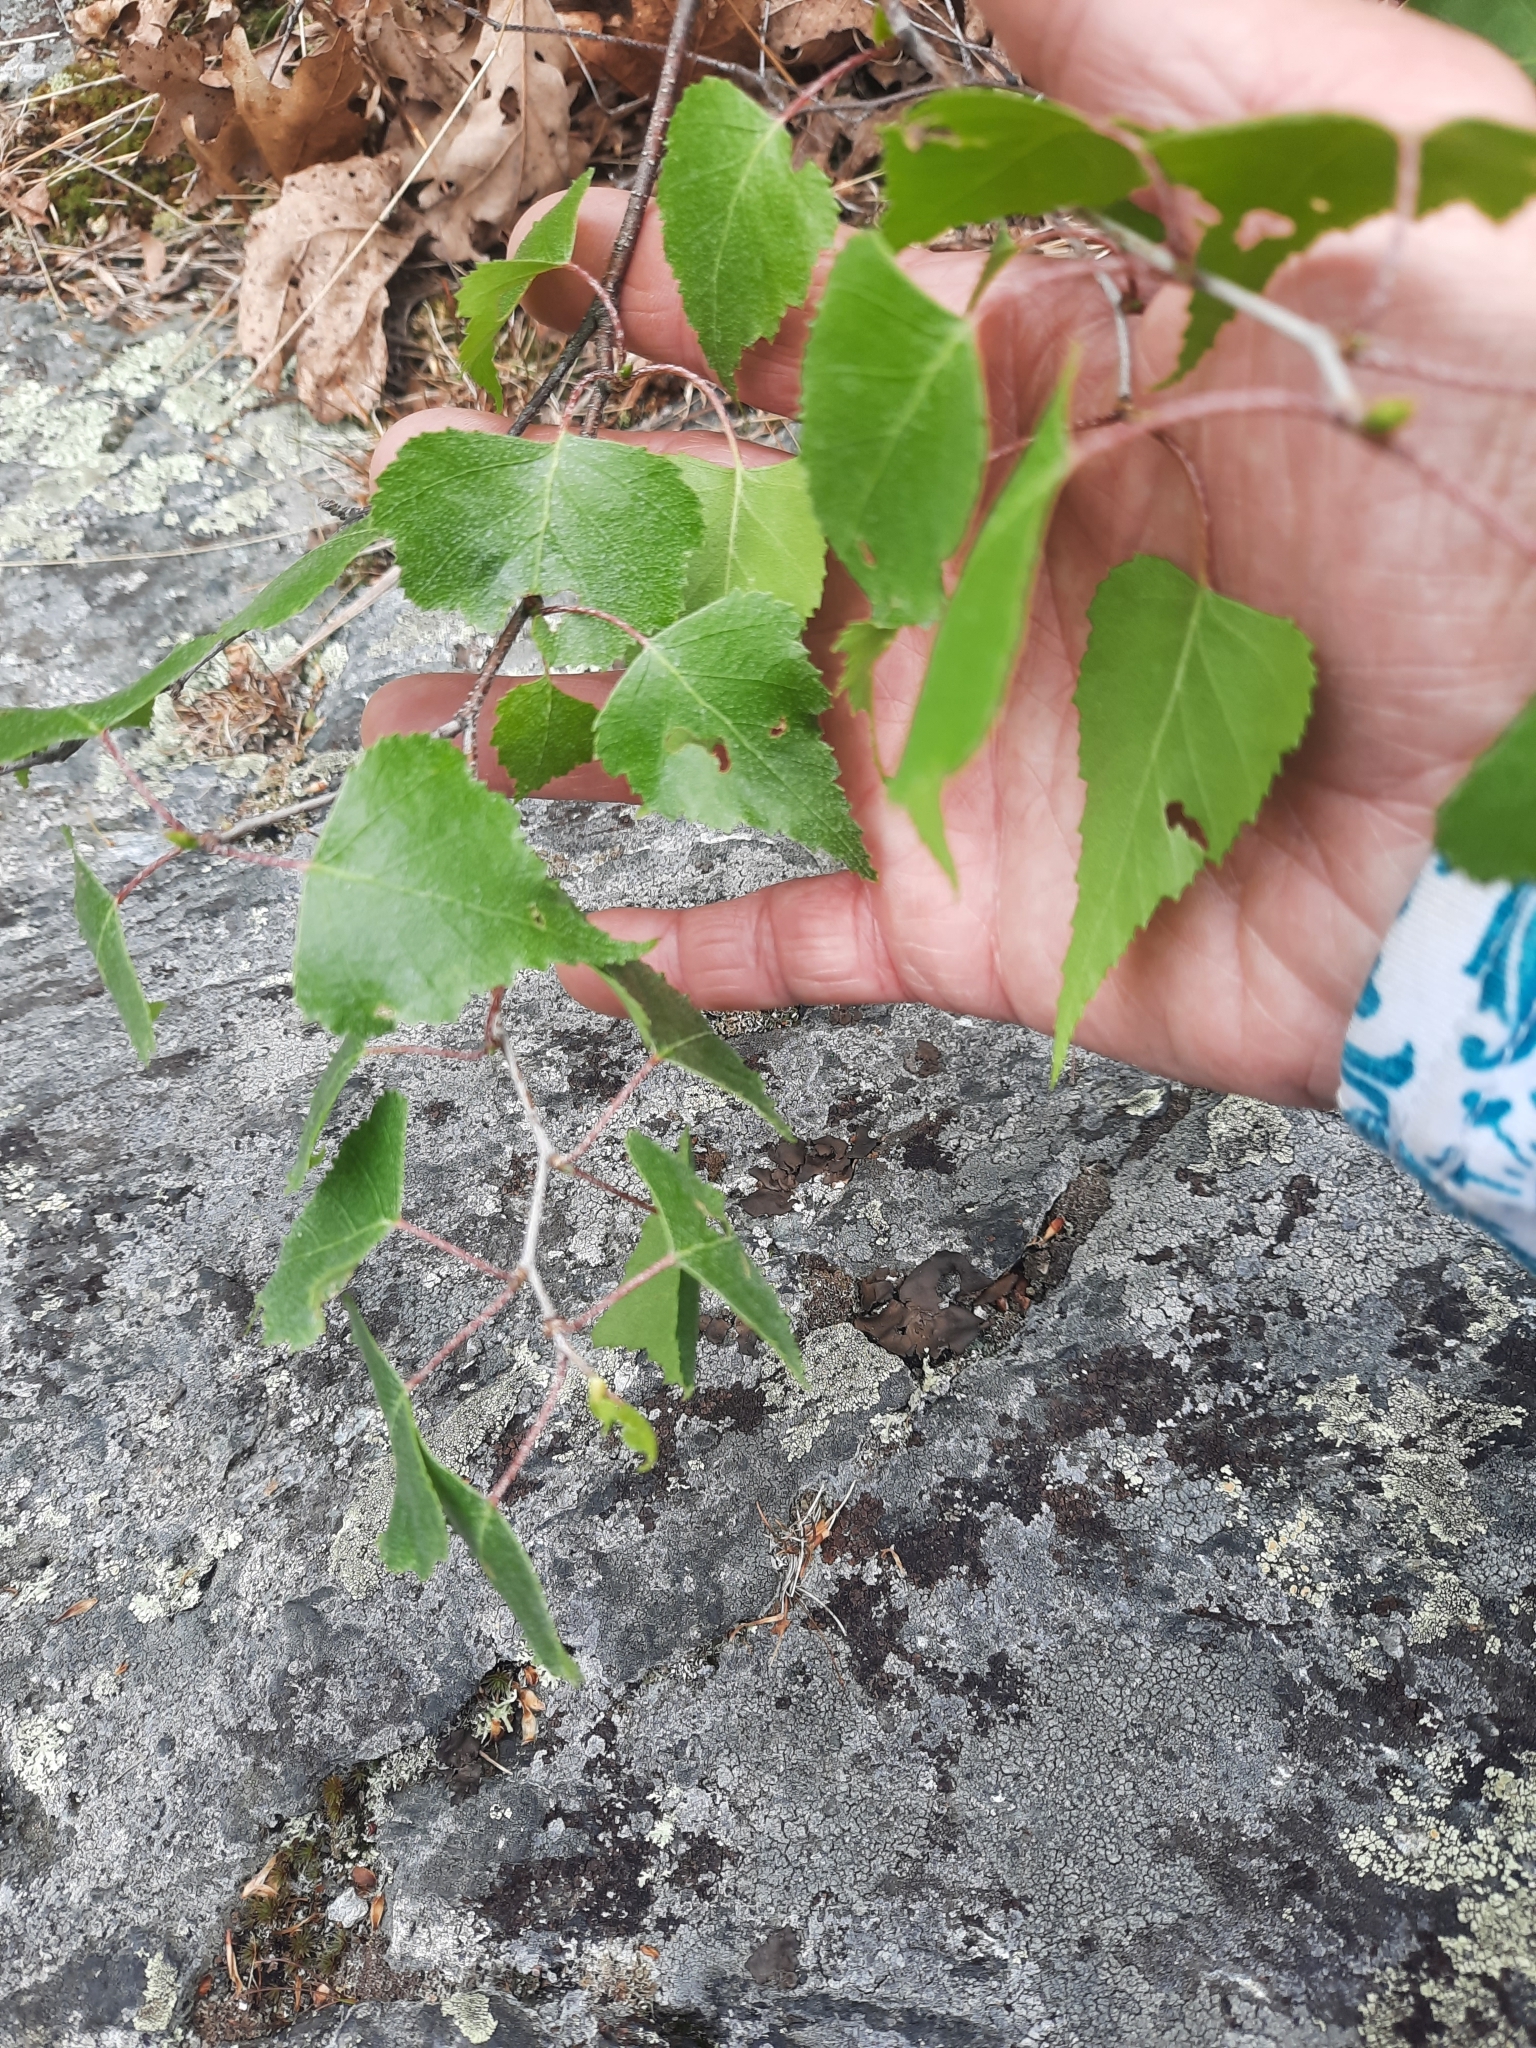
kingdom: Plantae
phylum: Tracheophyta
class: Magnoliopsida
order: Fagales
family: Betulaceae
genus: Betula
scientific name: Betula populifolia
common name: Fire birch
